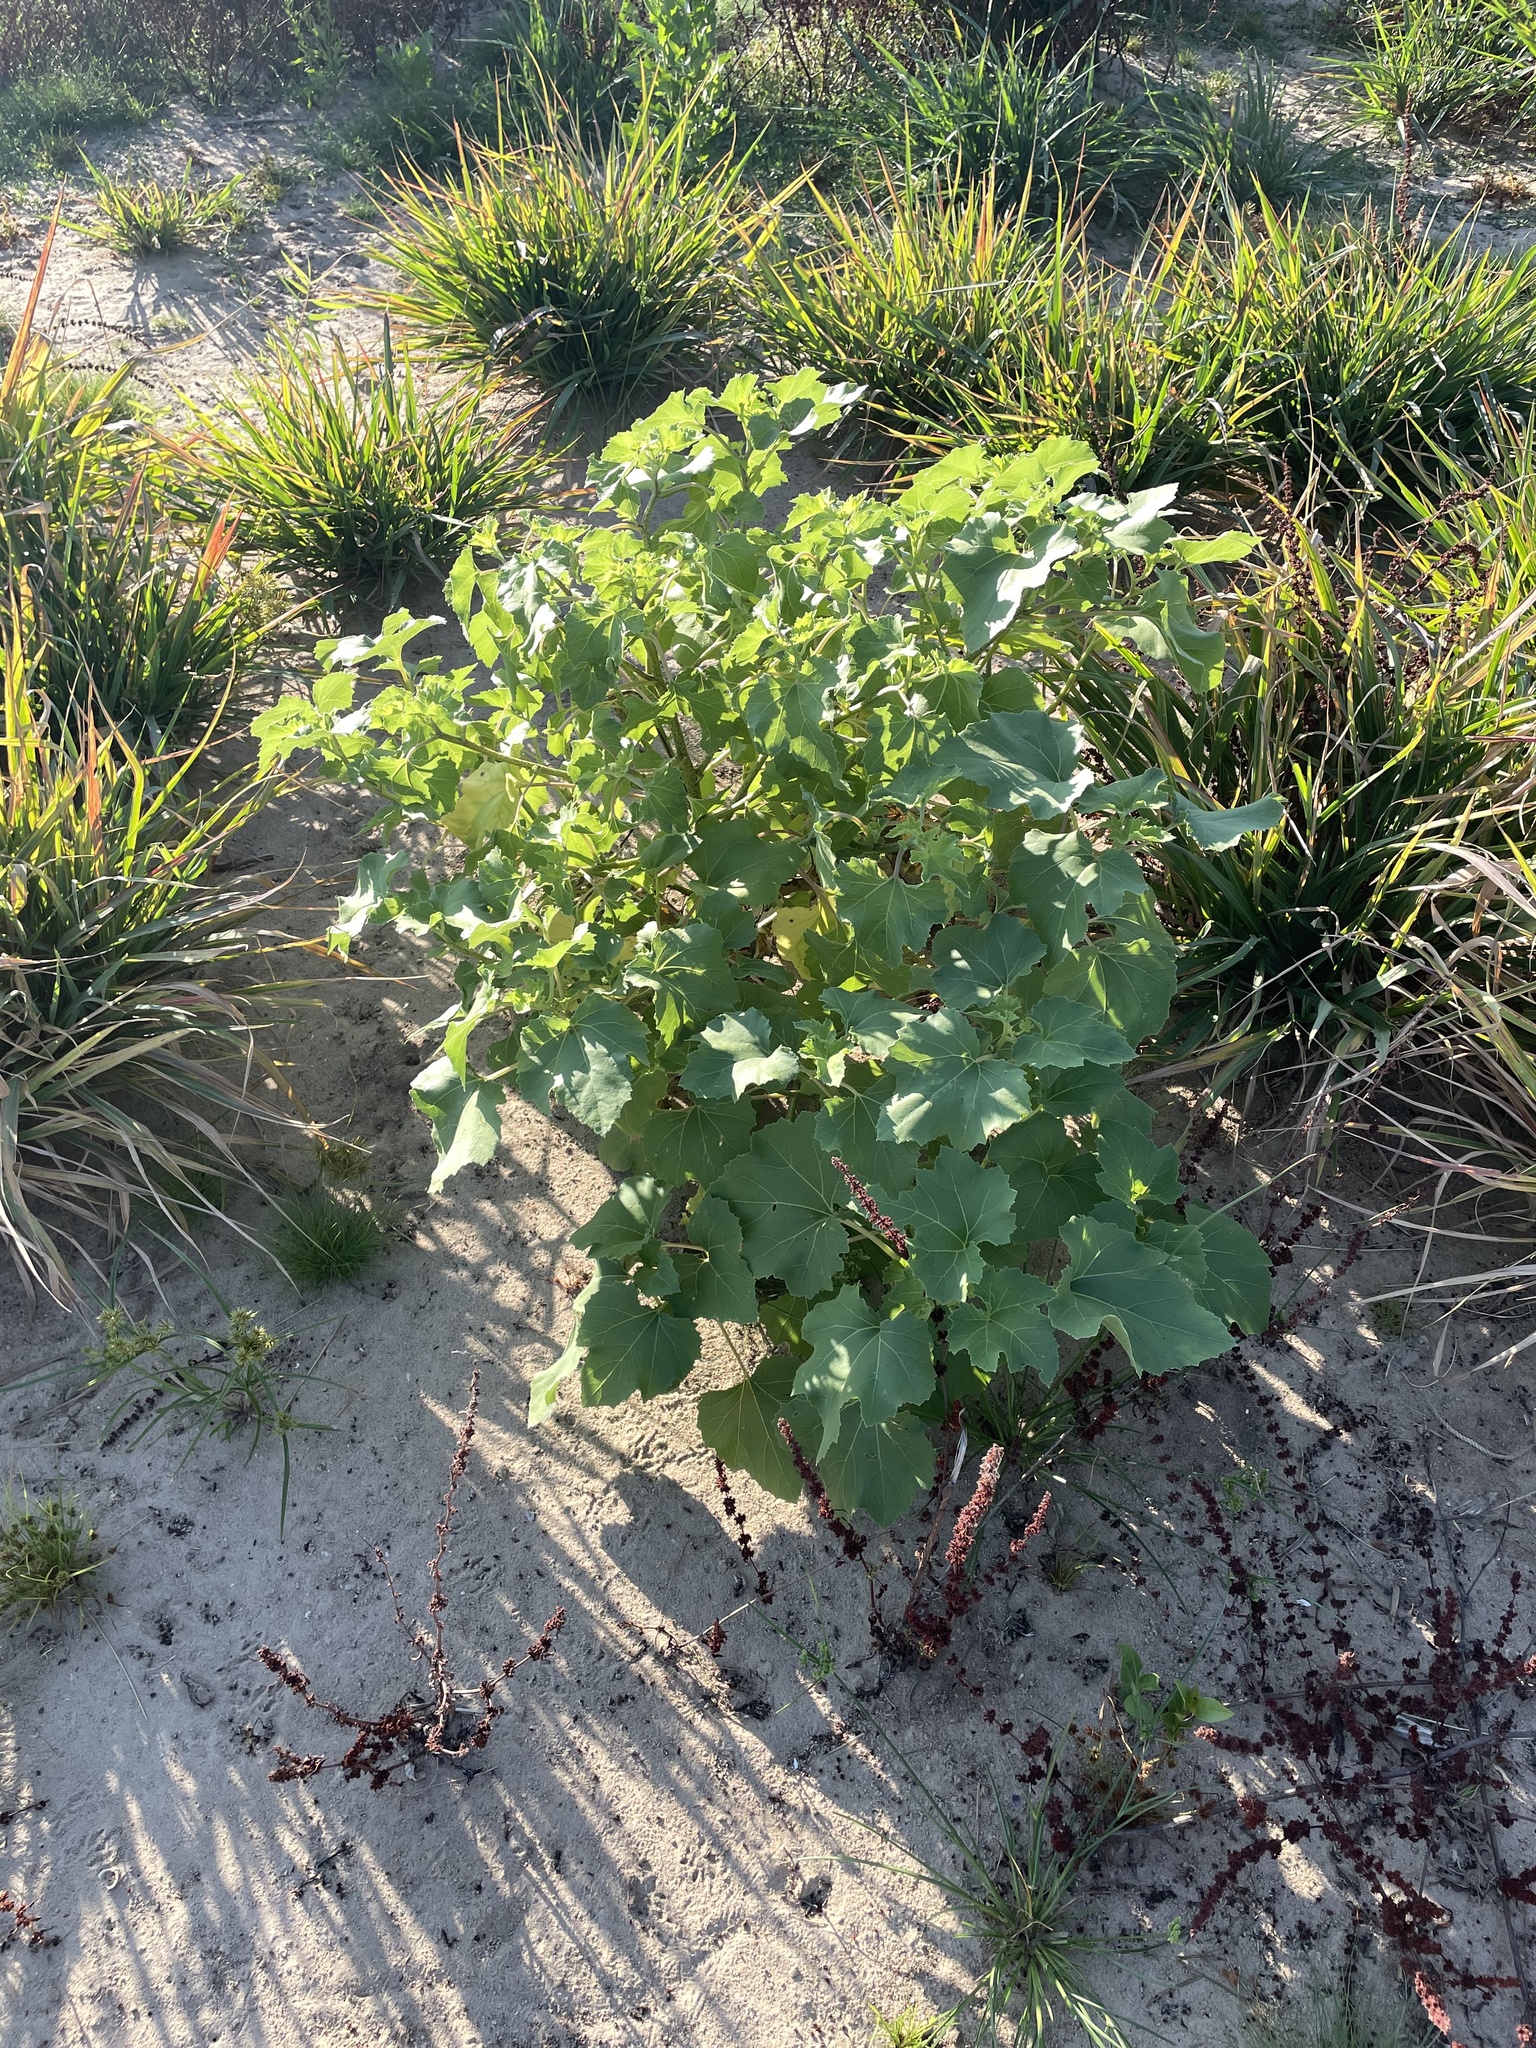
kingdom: Plantae
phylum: Tracheophyta
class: Magnoliopsida
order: Asterales
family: Asteraceae
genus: Xanthium
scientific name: Xanthium strumarium
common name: Rough cocklebur
